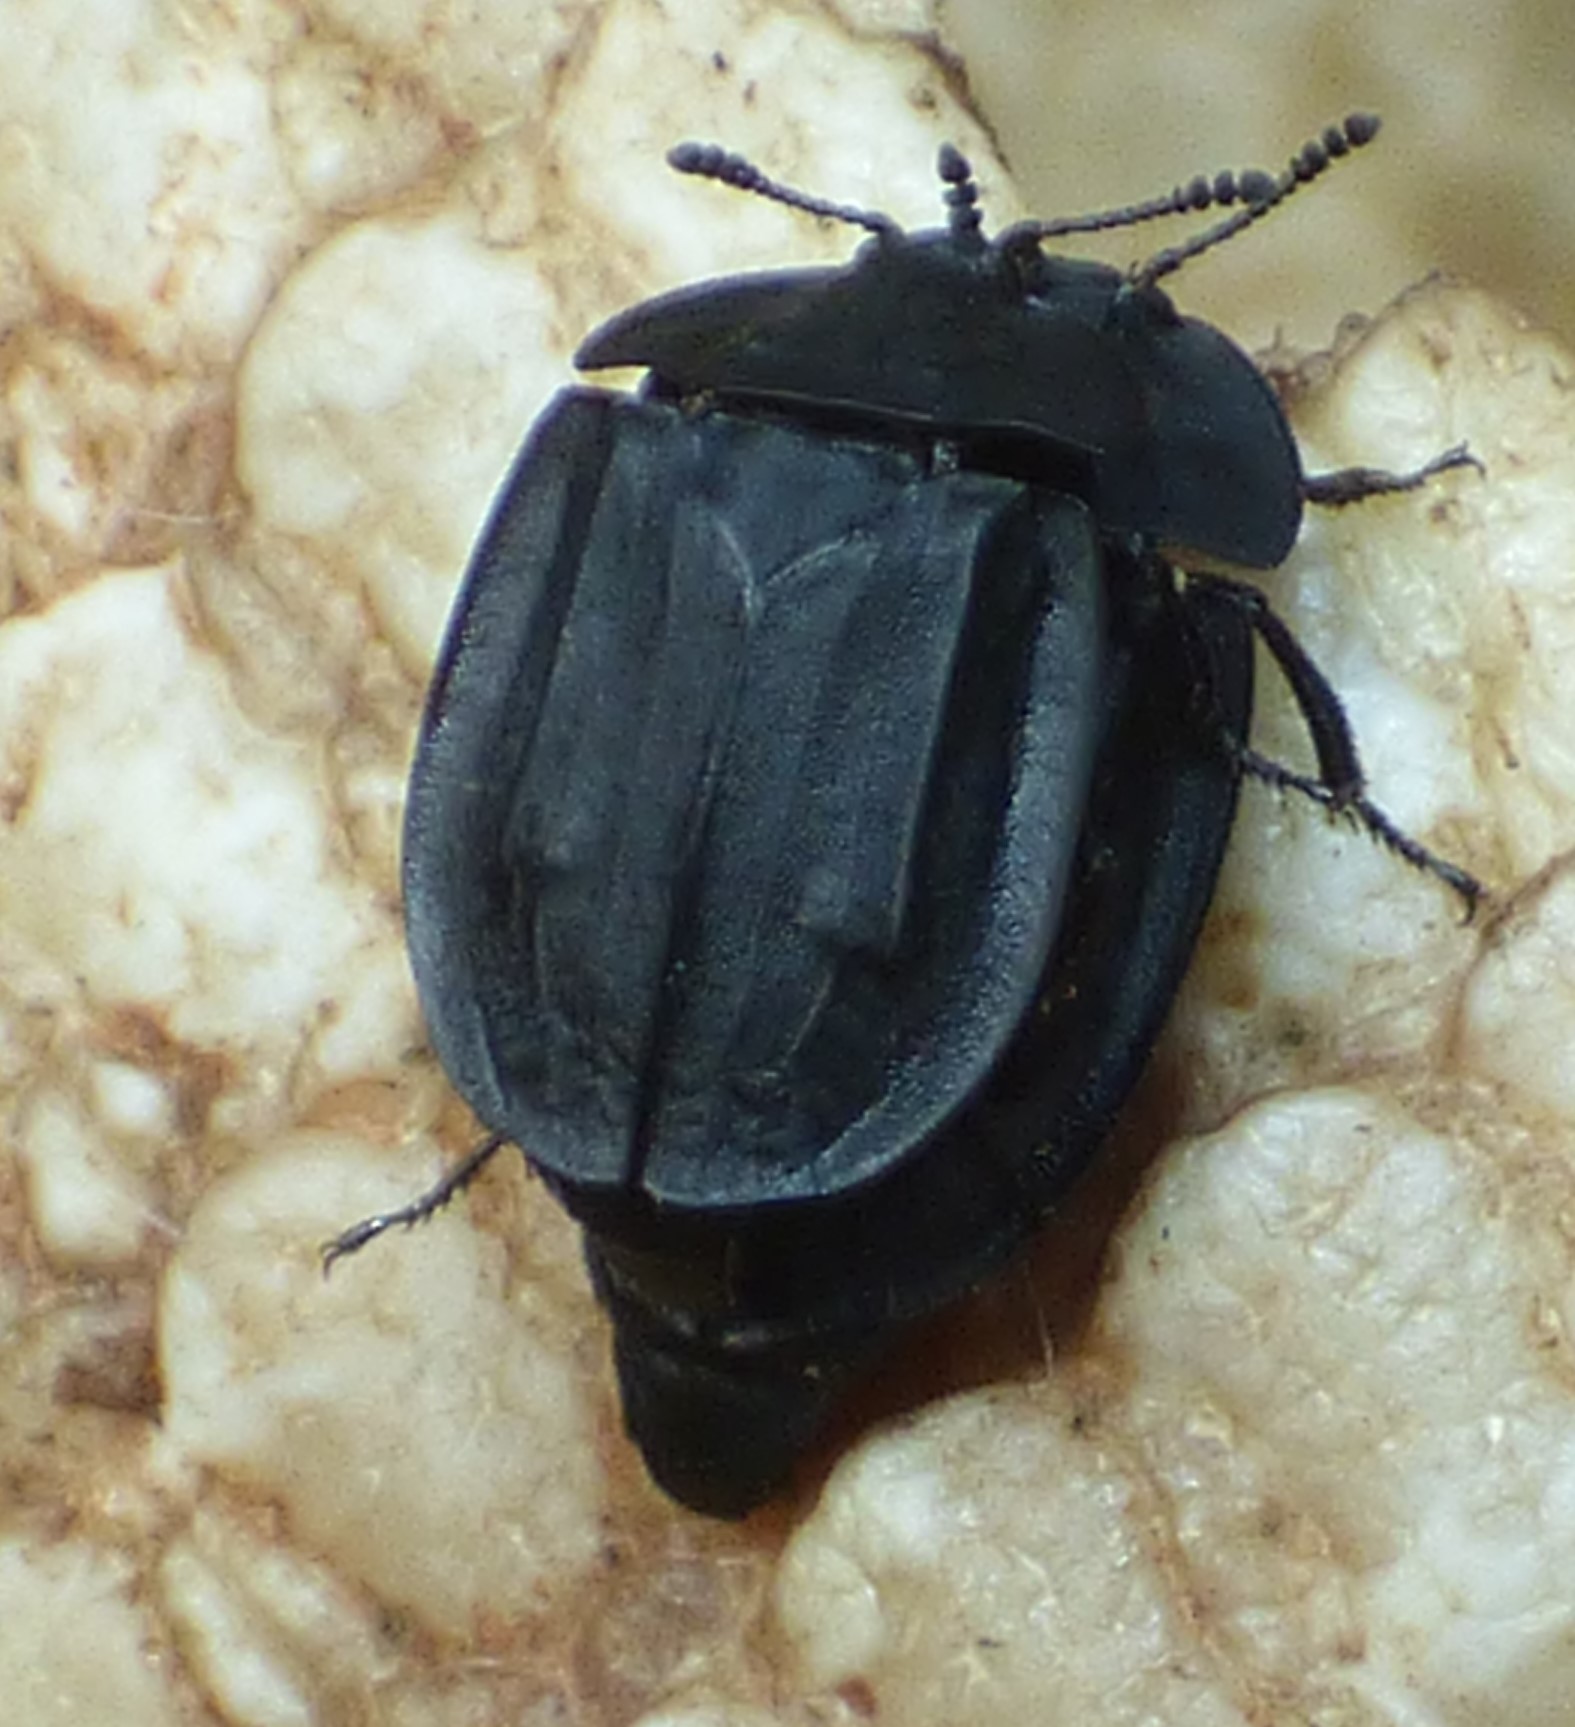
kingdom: Animalia
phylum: Arthropoda
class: Insecta
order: Coleoptera
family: Staphylinidae
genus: Oiceoptoma
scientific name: Oiceoptoma inaequale
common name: Ridged carrion beetle
